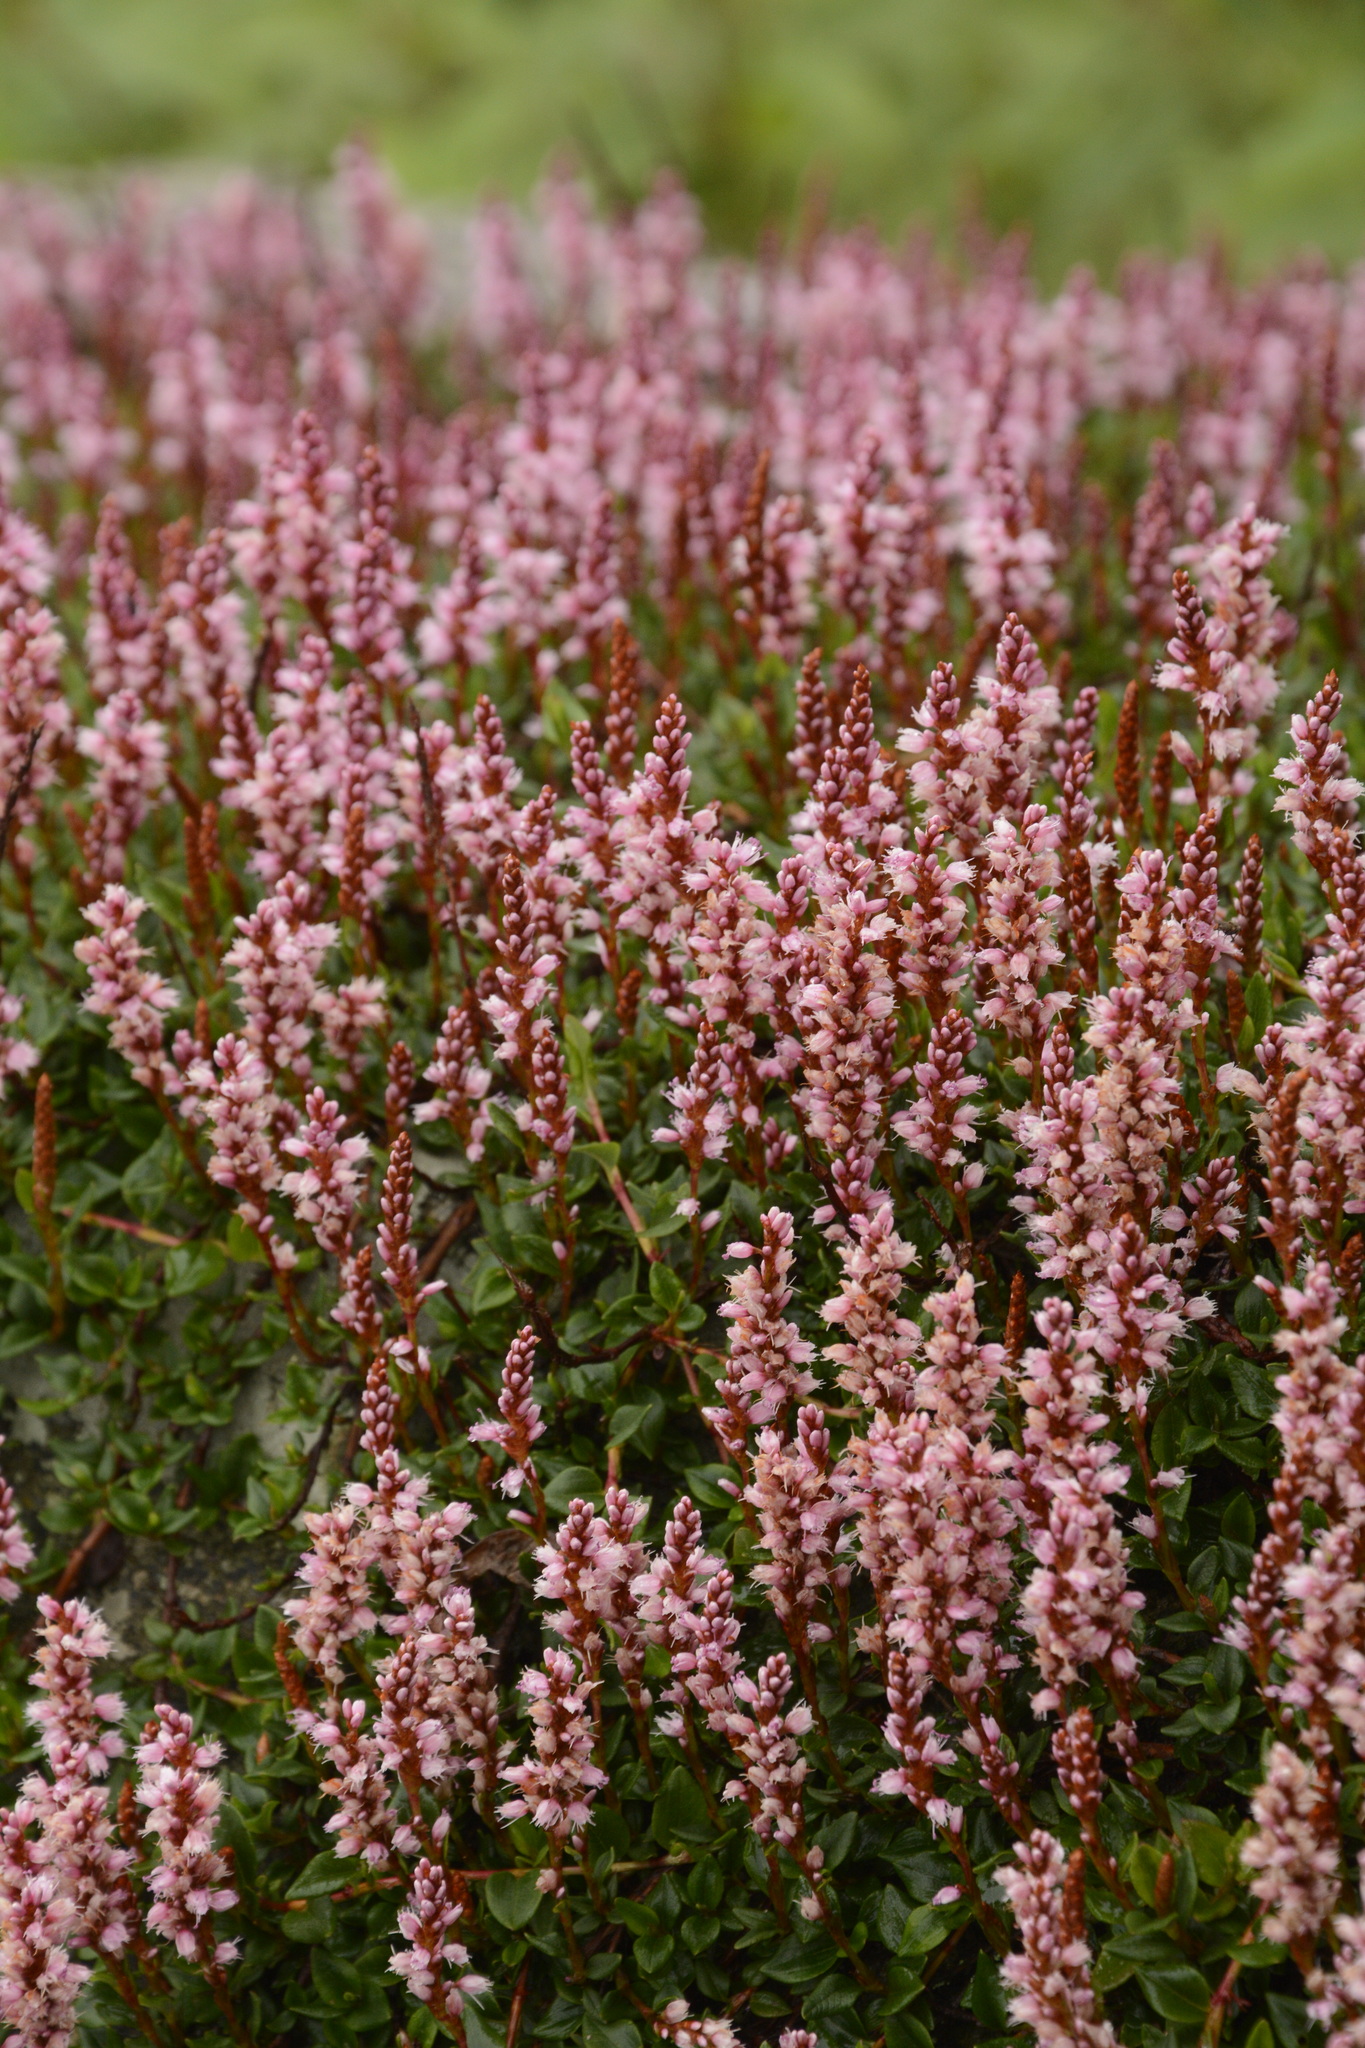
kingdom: Plantae
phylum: Tracheophyta
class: Magnoliopsida
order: Caryophyllales
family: Polygonaceae
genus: Bistorta
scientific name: Bistorta vacciniifolia
